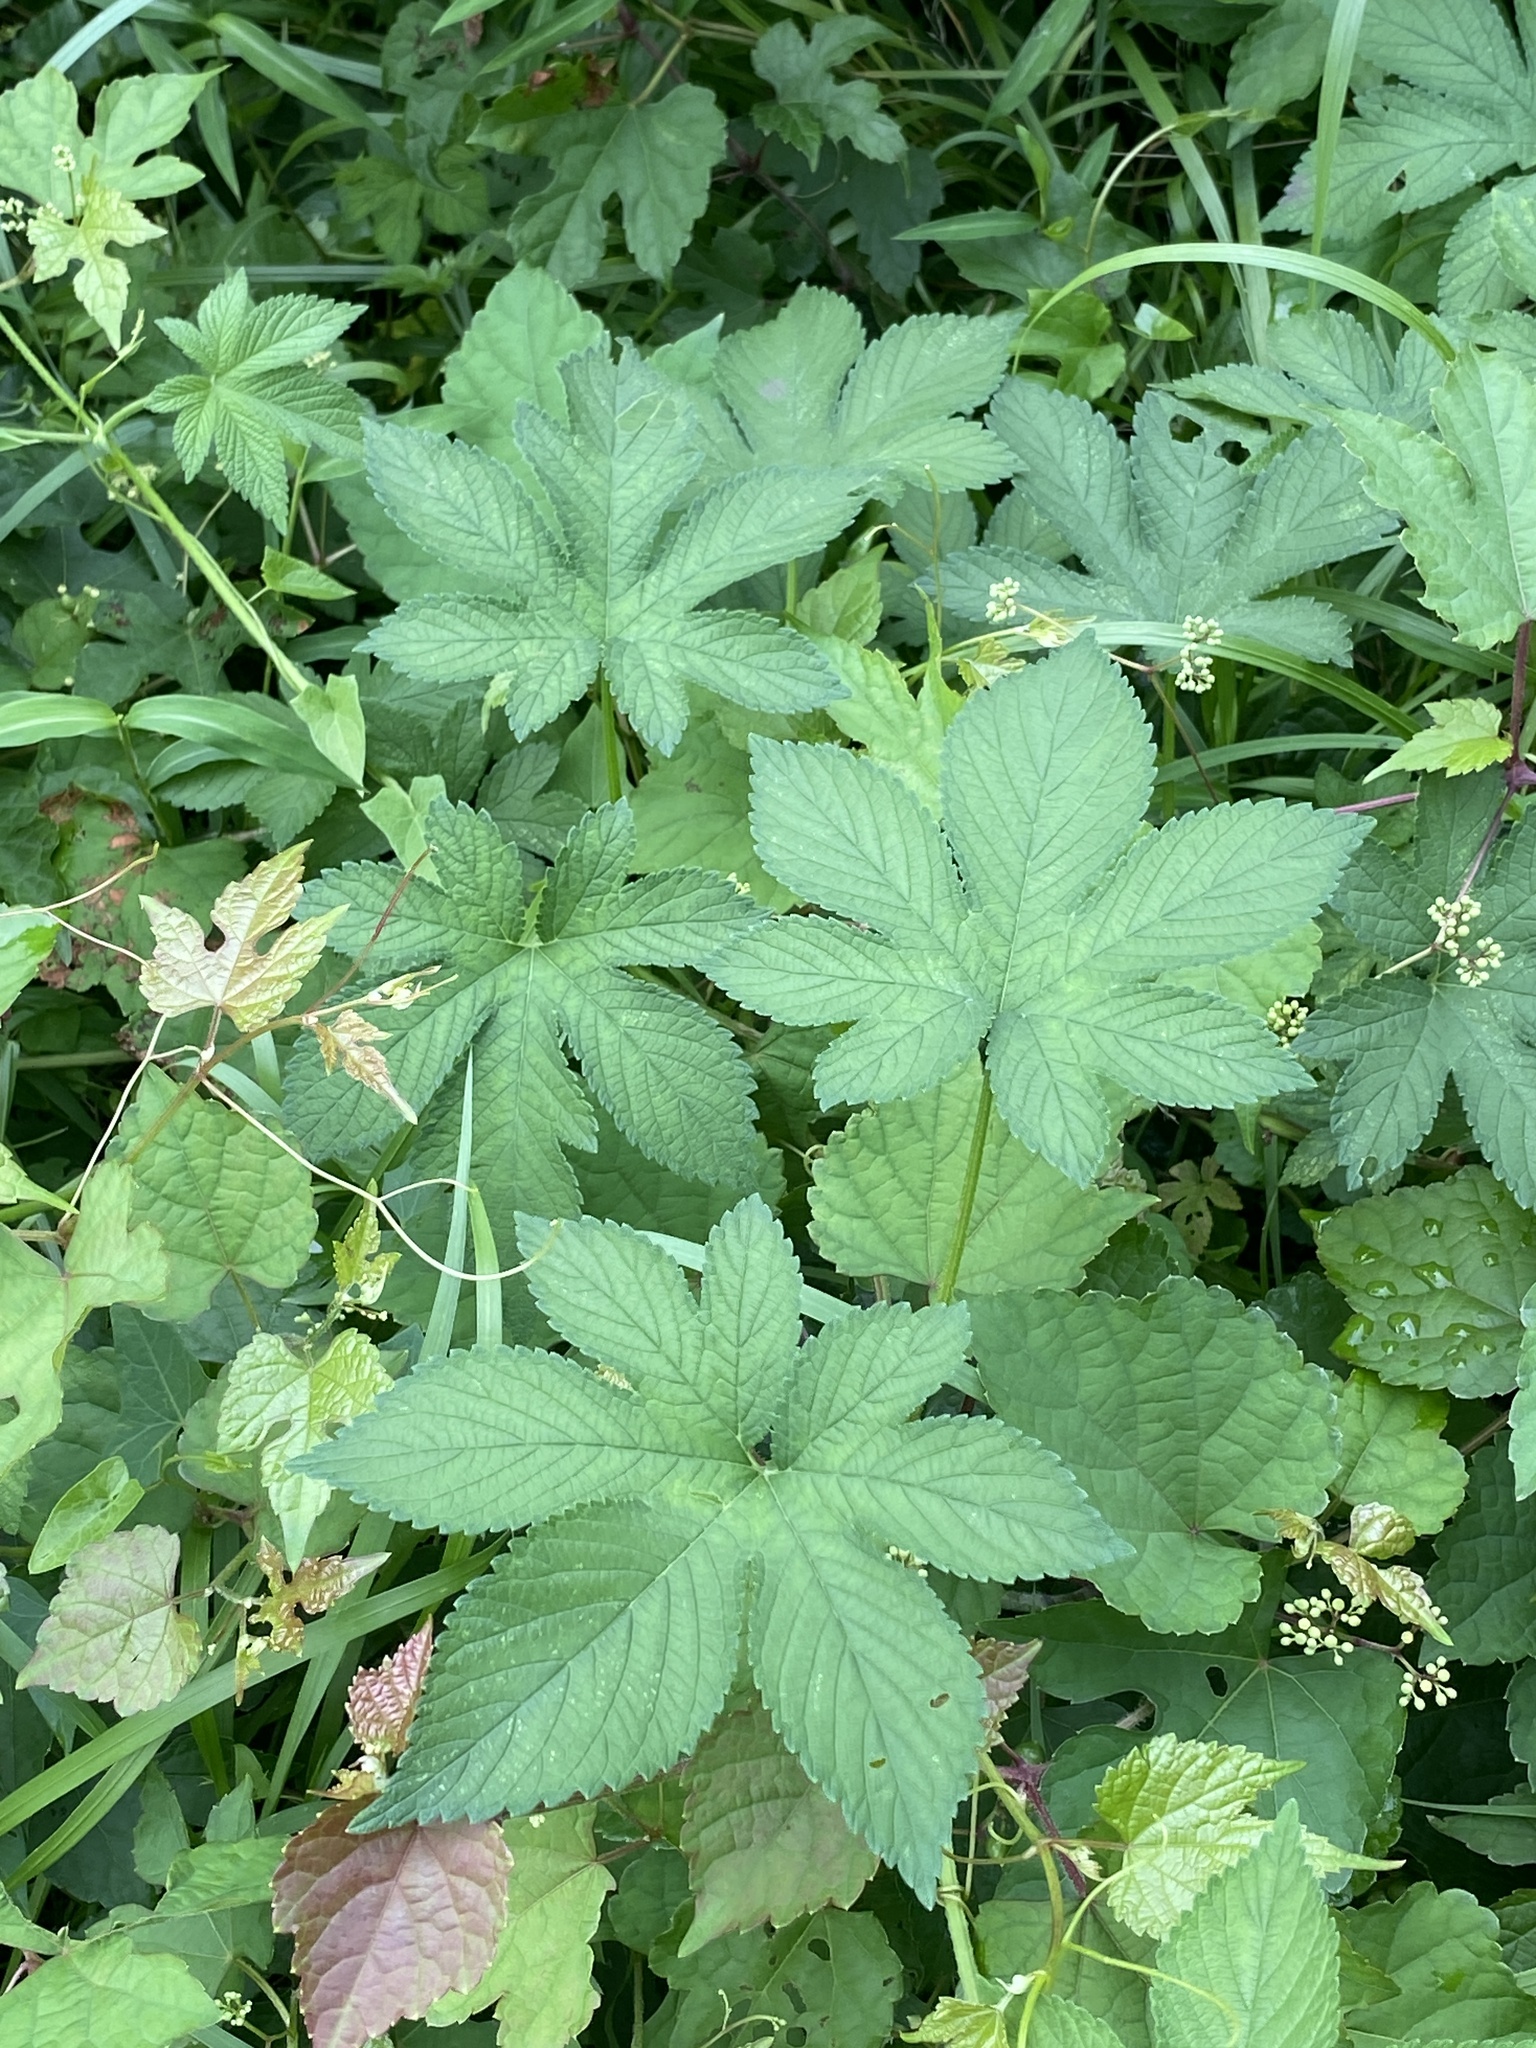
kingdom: Plantae
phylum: Tracheophyta
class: Magnoliopsida
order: Rosales
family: Cannabaceae
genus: Humulus
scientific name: Humulus scandens
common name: Japanese hop
